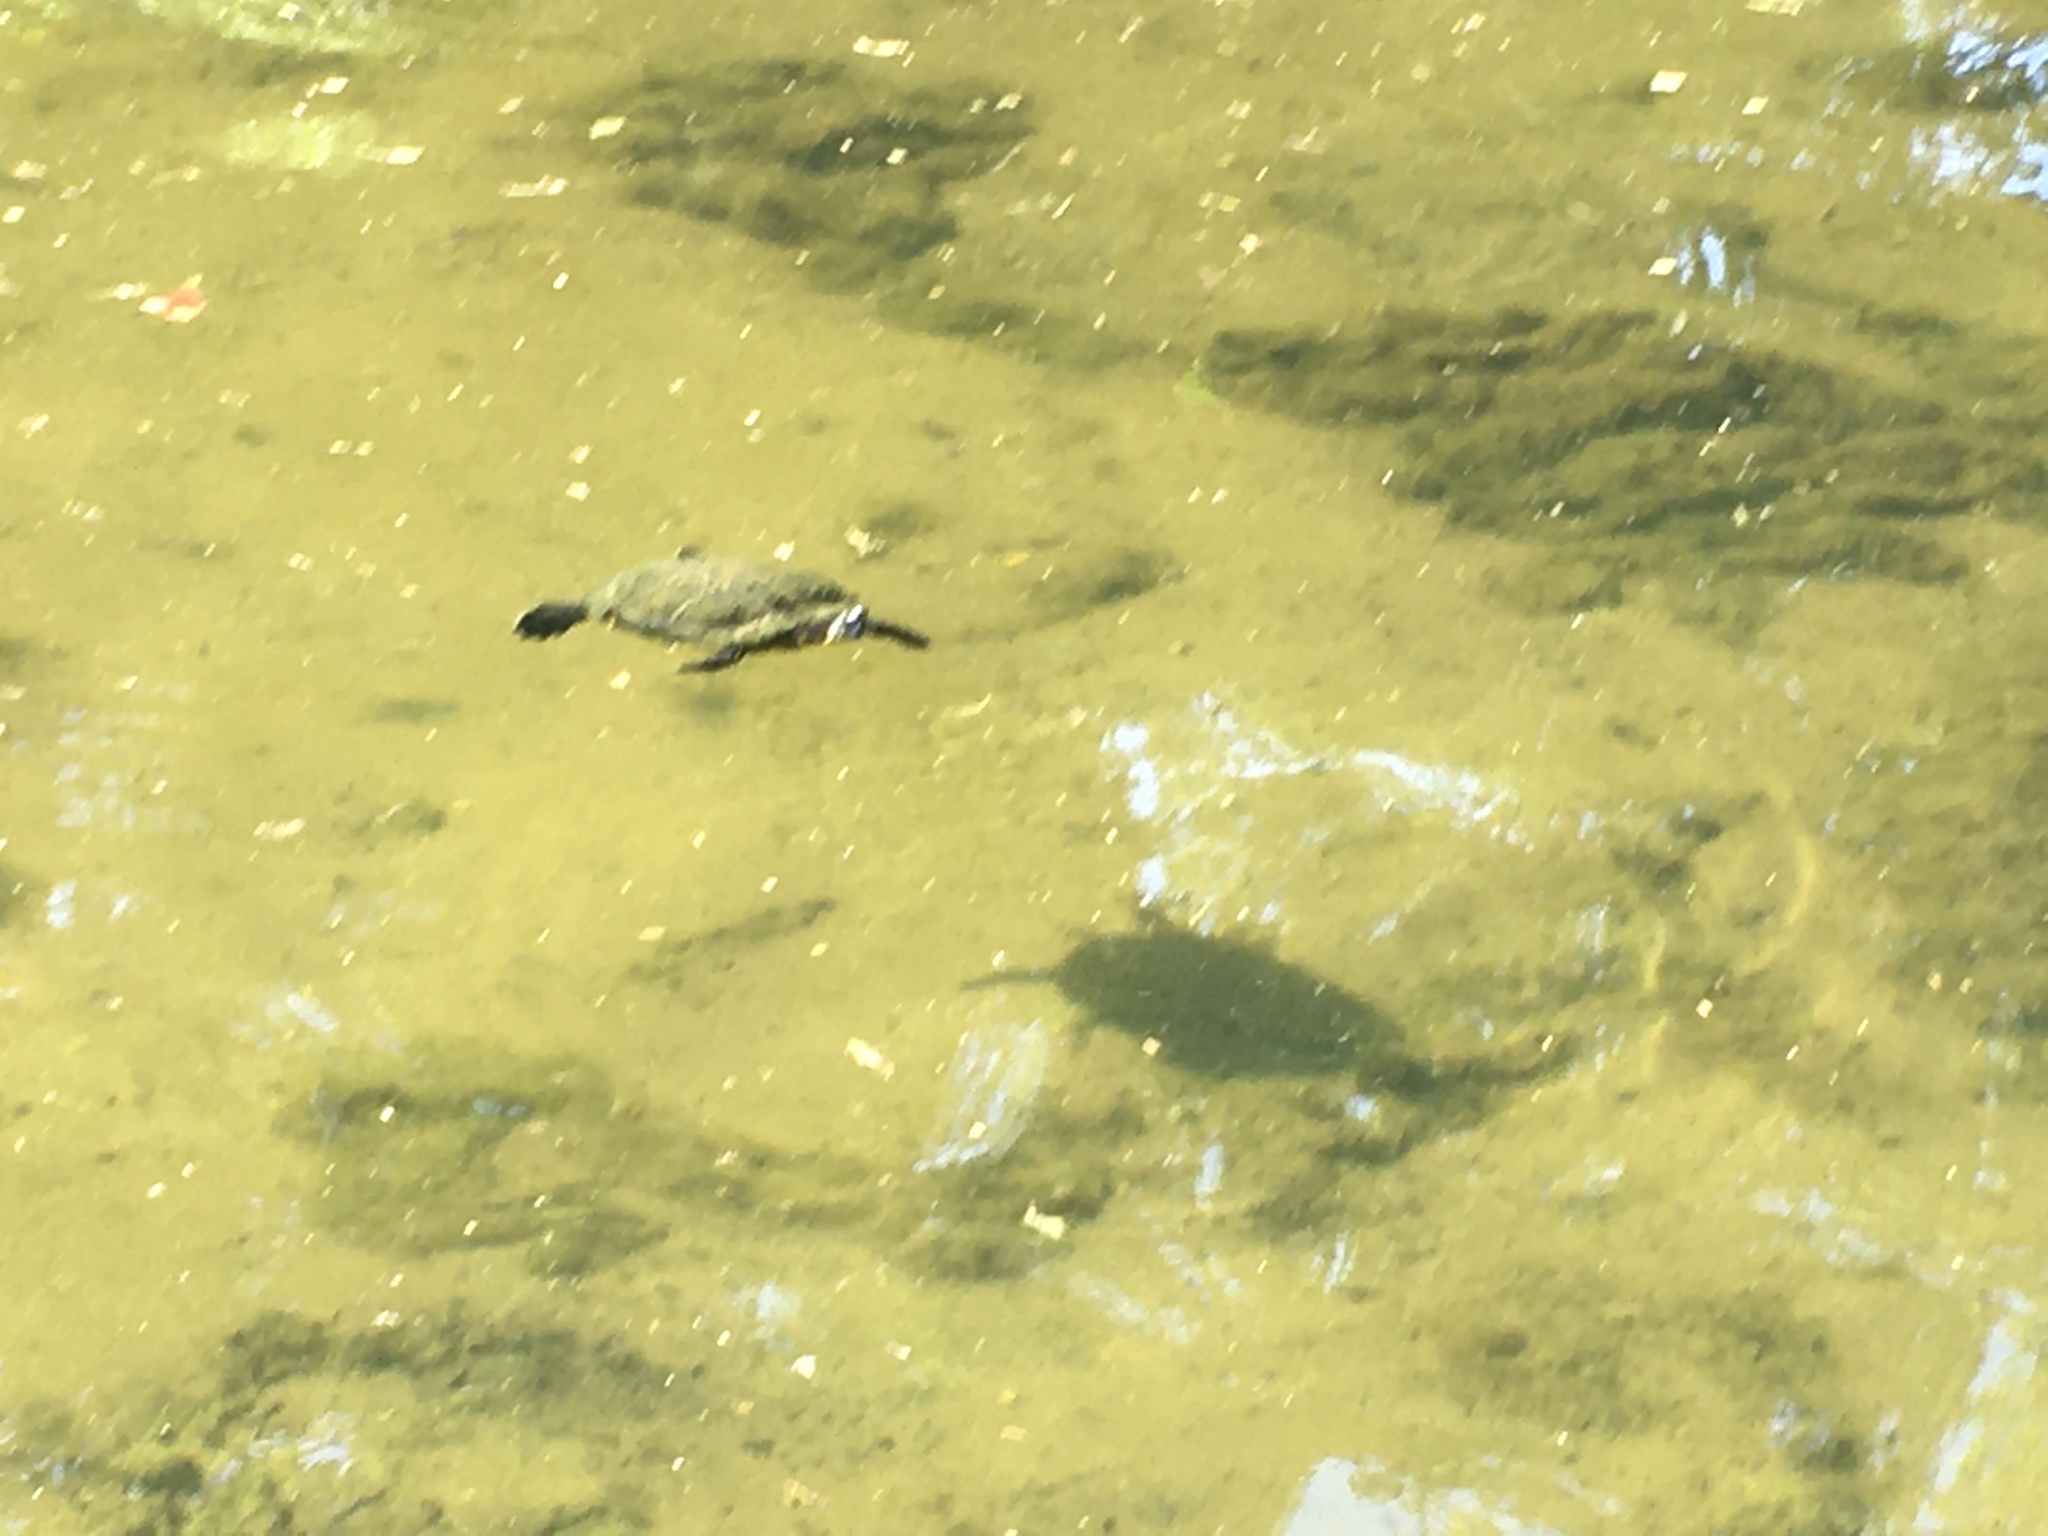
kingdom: Animalia
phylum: Chordata
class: Testudines
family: Emydidae
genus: Trachemys
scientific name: Trachemys scripta
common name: Slider
